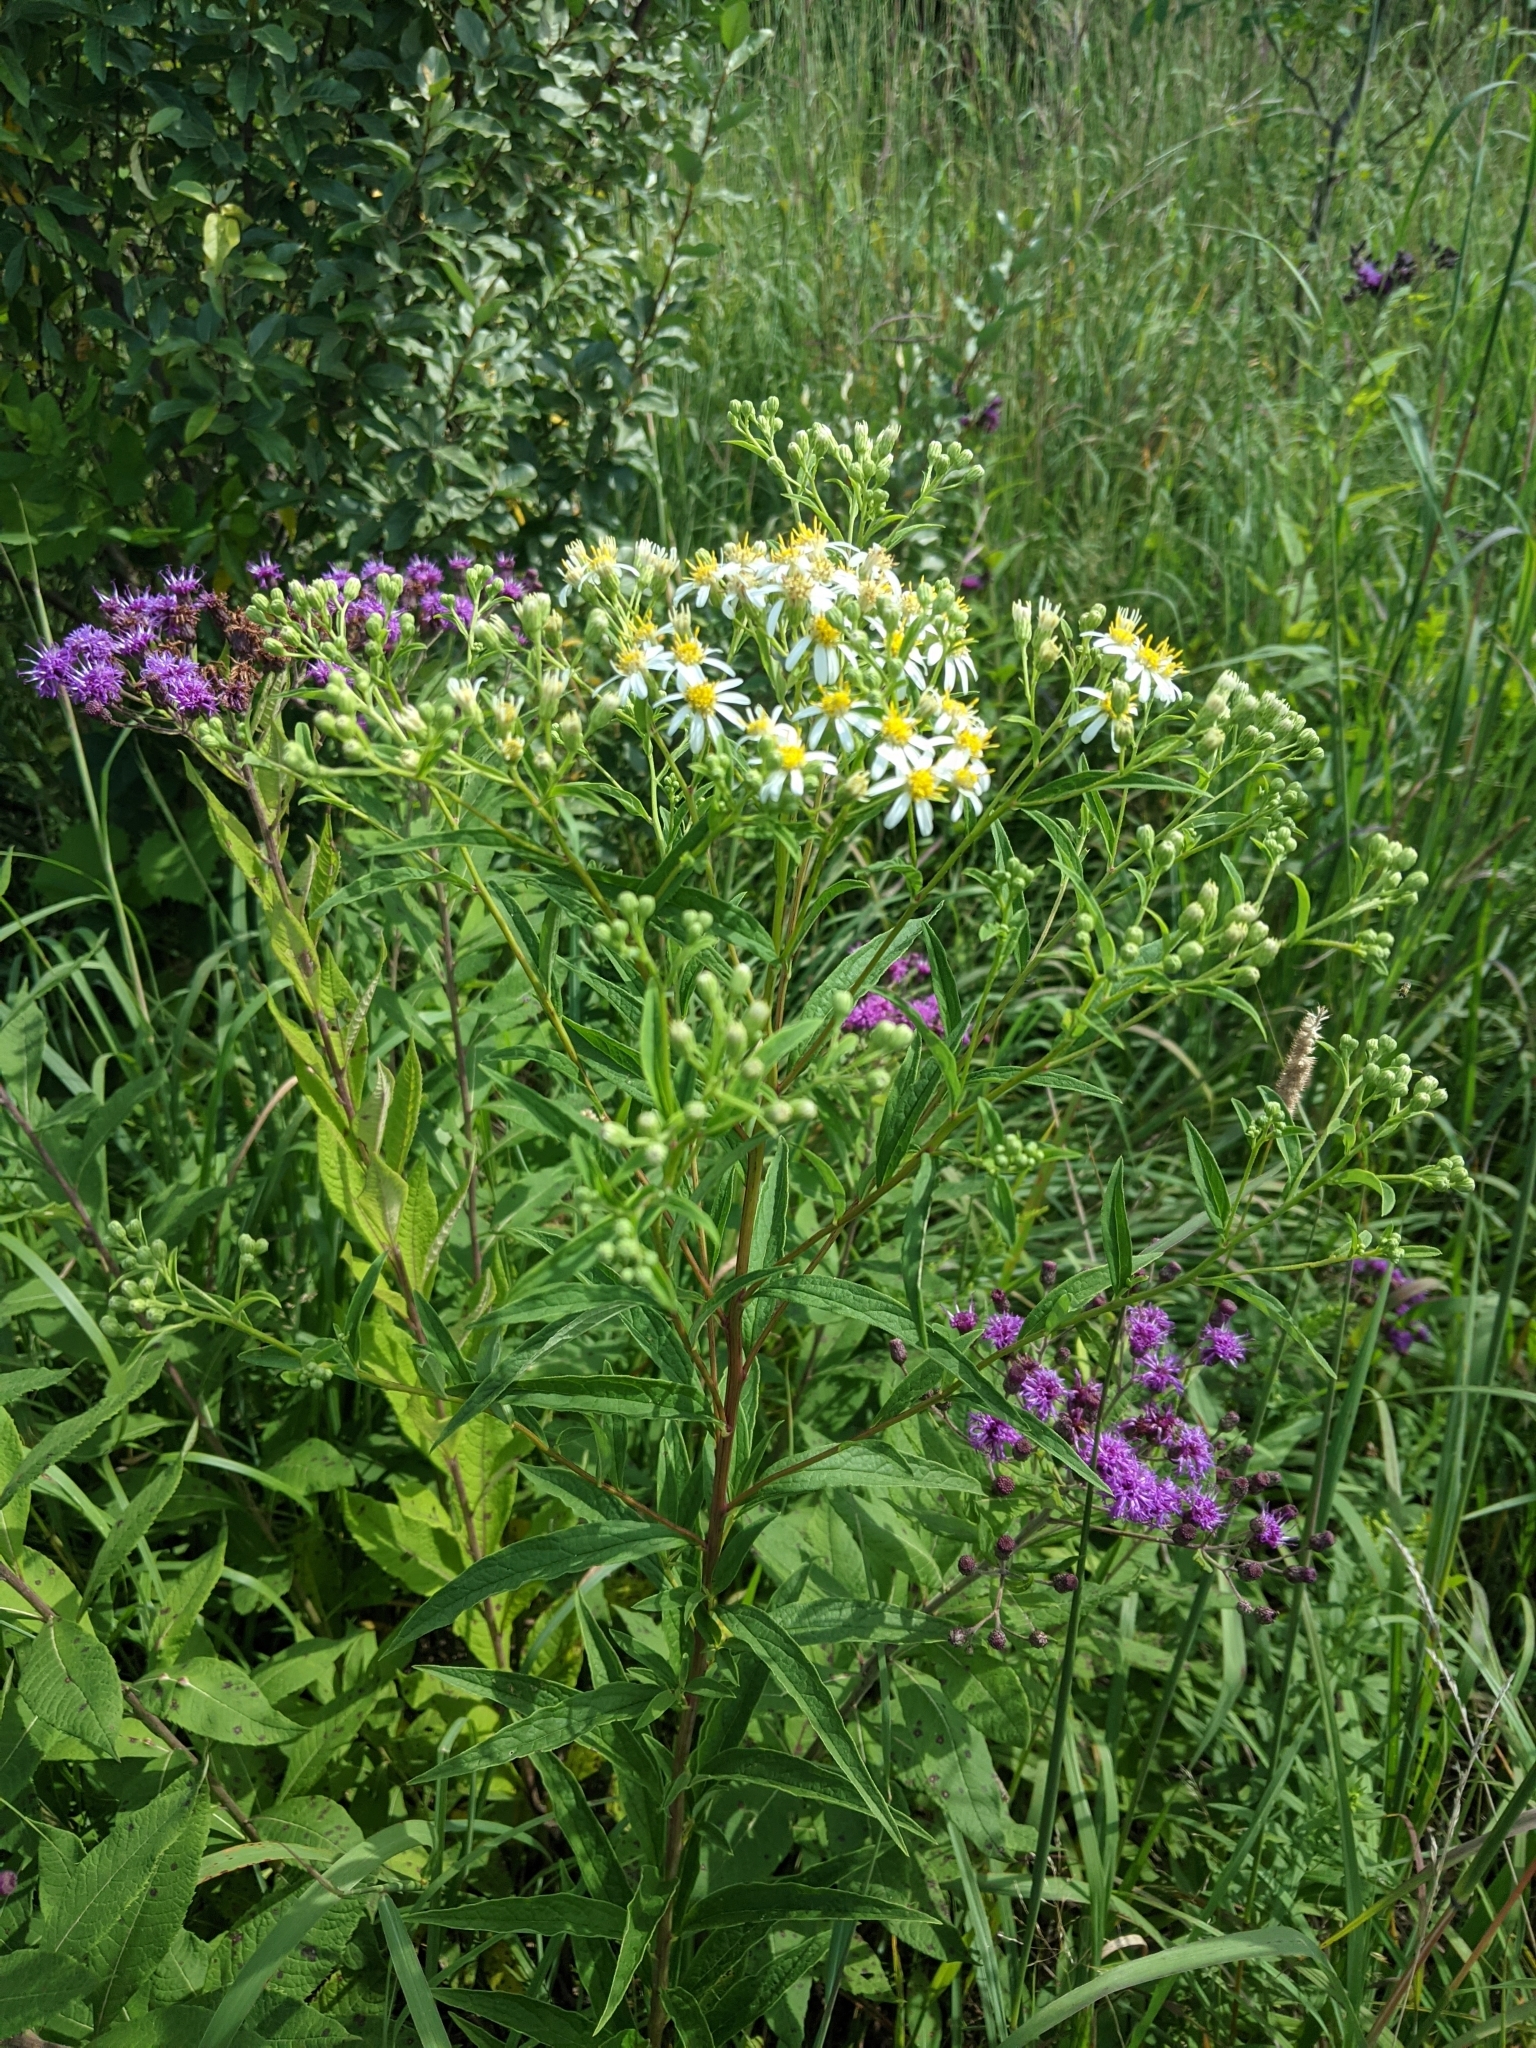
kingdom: Plantae
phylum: Tracheophyta
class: Magnoliopsida
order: Asterales
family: Asteraceae
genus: Doellingeria
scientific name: Doellingeria umbellata
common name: Flat-top white aster
